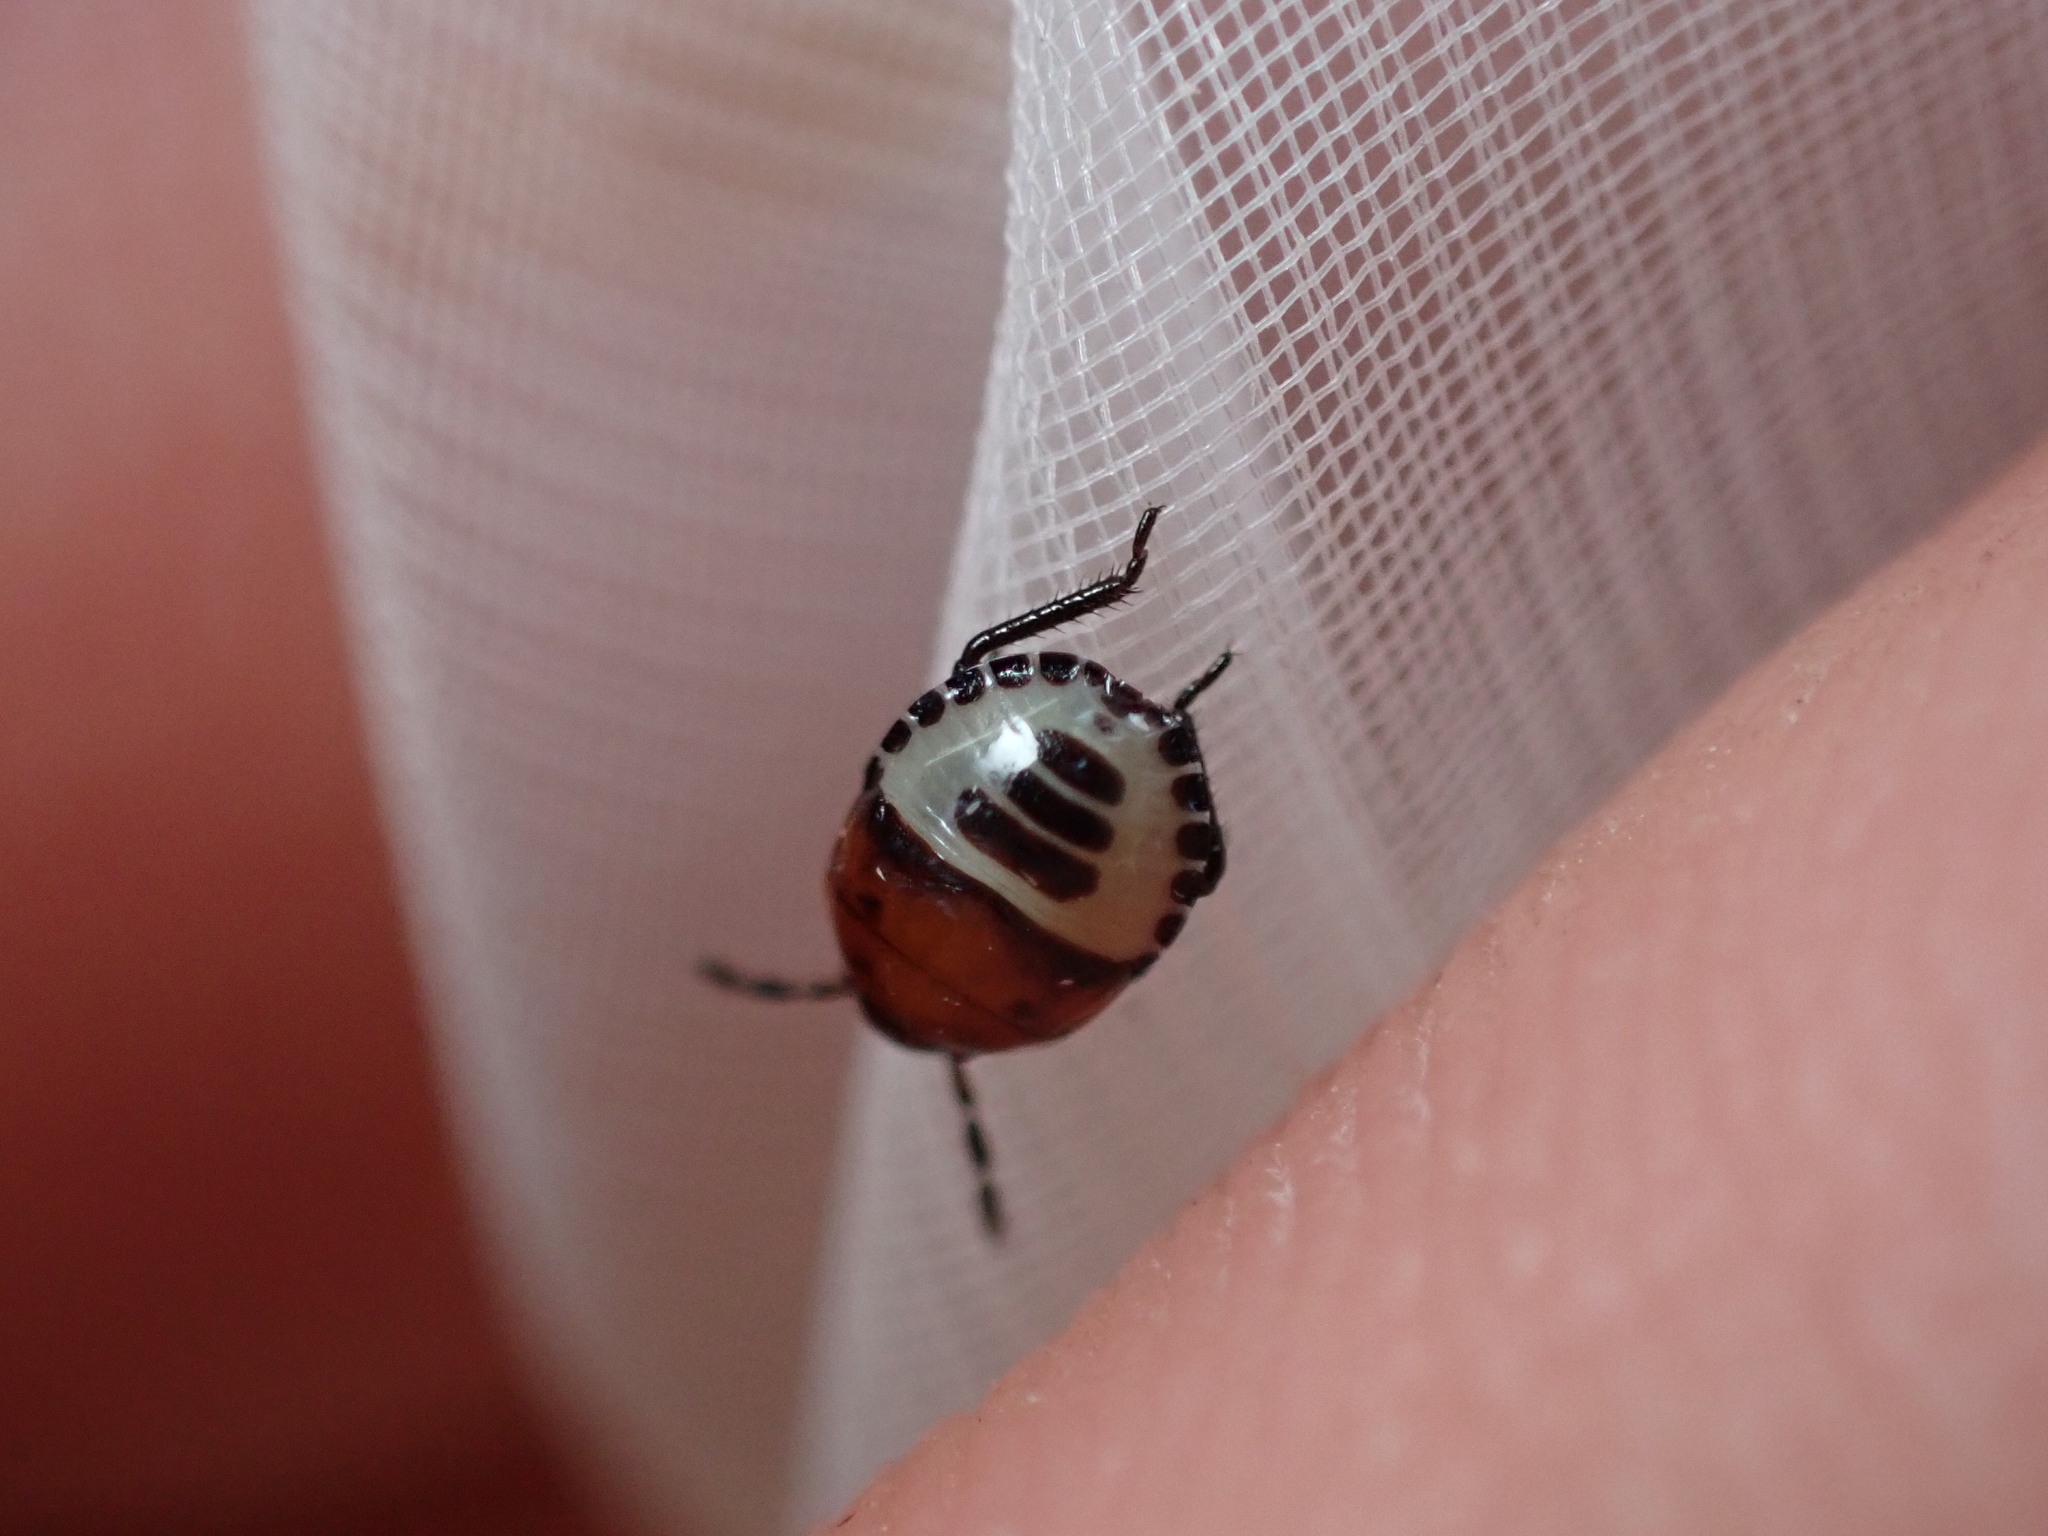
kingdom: Animalia
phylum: Arthropoda
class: Insecta
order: Hemiptera
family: Cydnidae
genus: Tritomegas
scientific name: Tritomegas sexmaculatus
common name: Rambur's pied shieldbug
